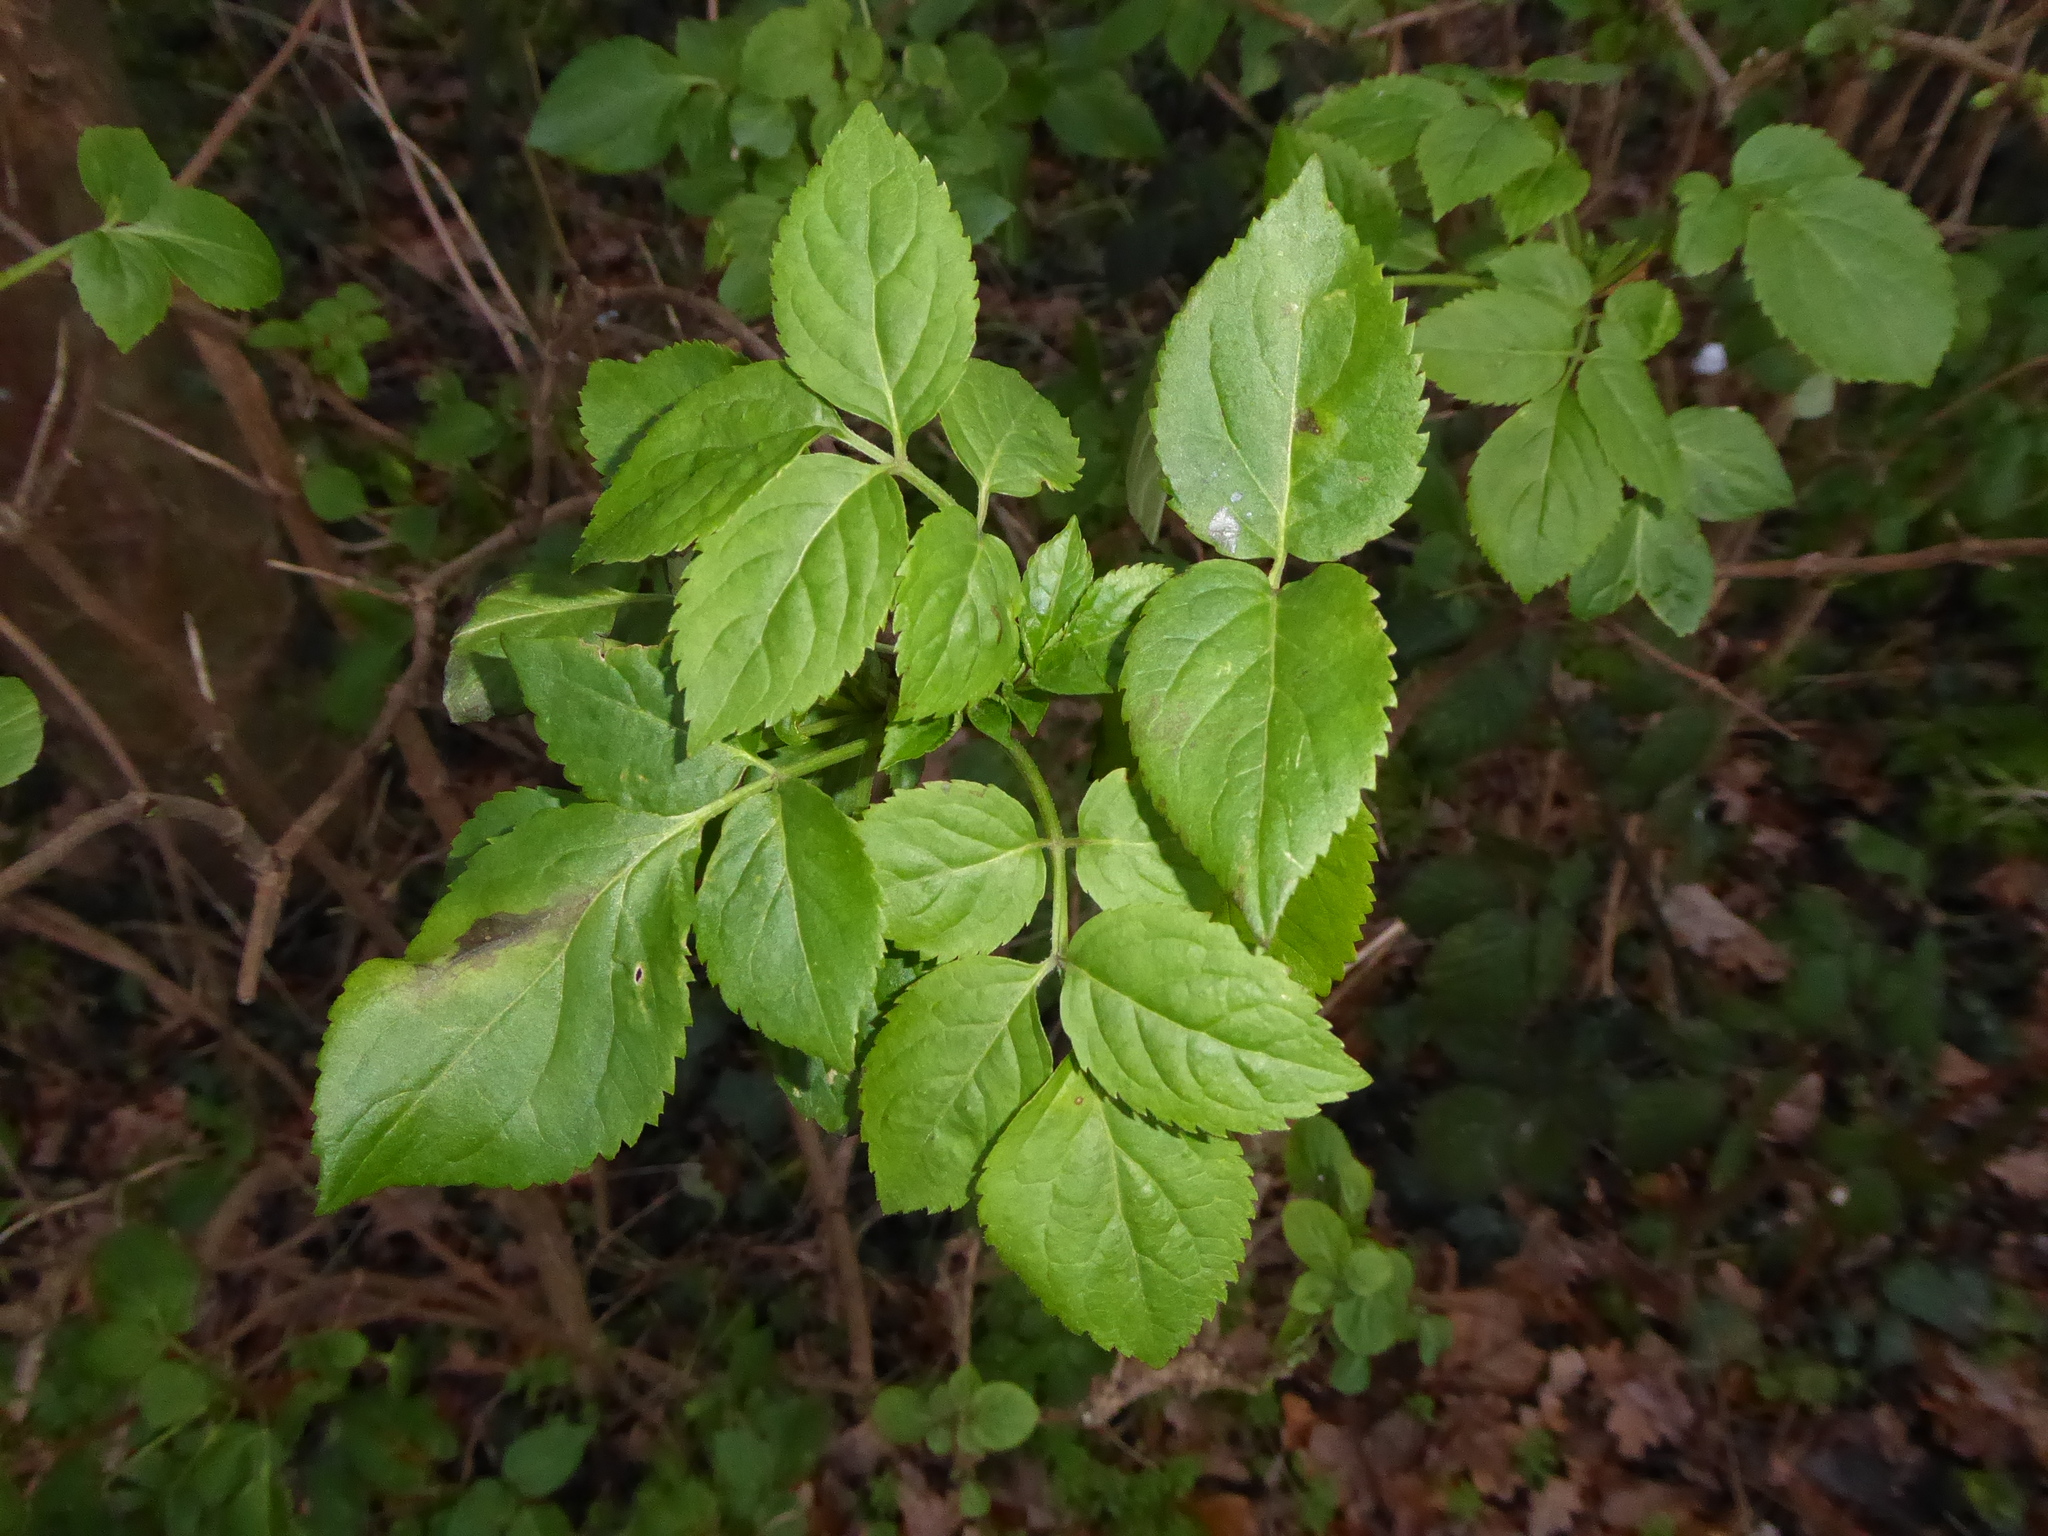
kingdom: Plantae
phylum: Tracheophyta
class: Magnoliopsida
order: Dipsacales
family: Viburnaceae
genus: Sambucus
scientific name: Sambucus nigra
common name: Elder
